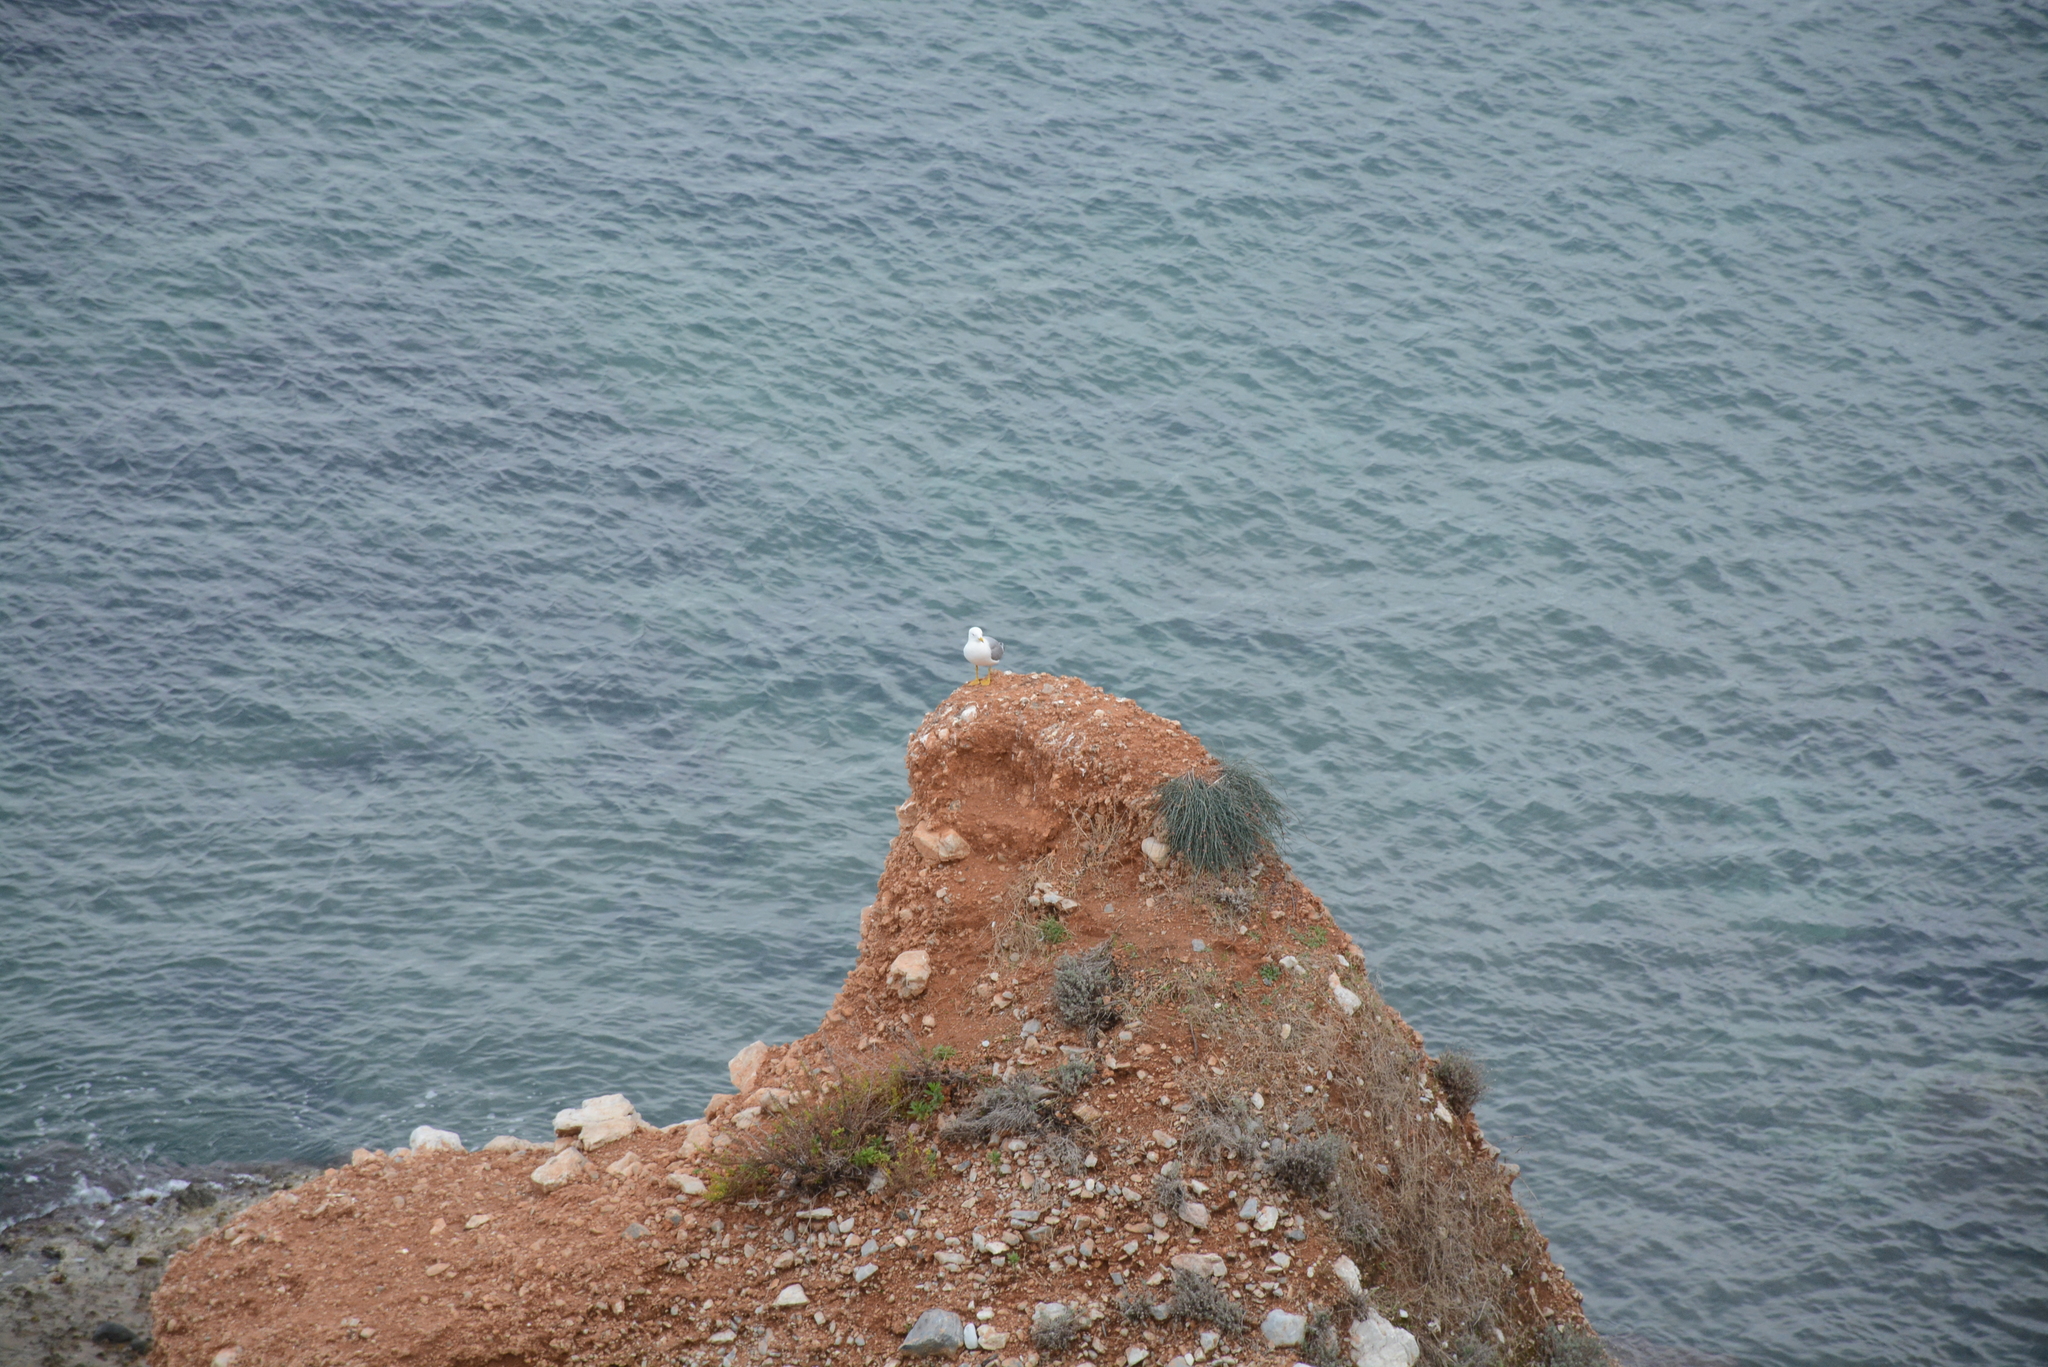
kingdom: Animalia
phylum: Chordata
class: Aves
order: Charadriiformes
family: Laridae
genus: Larus
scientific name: Larus michahellis
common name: Yellow-legged gull
